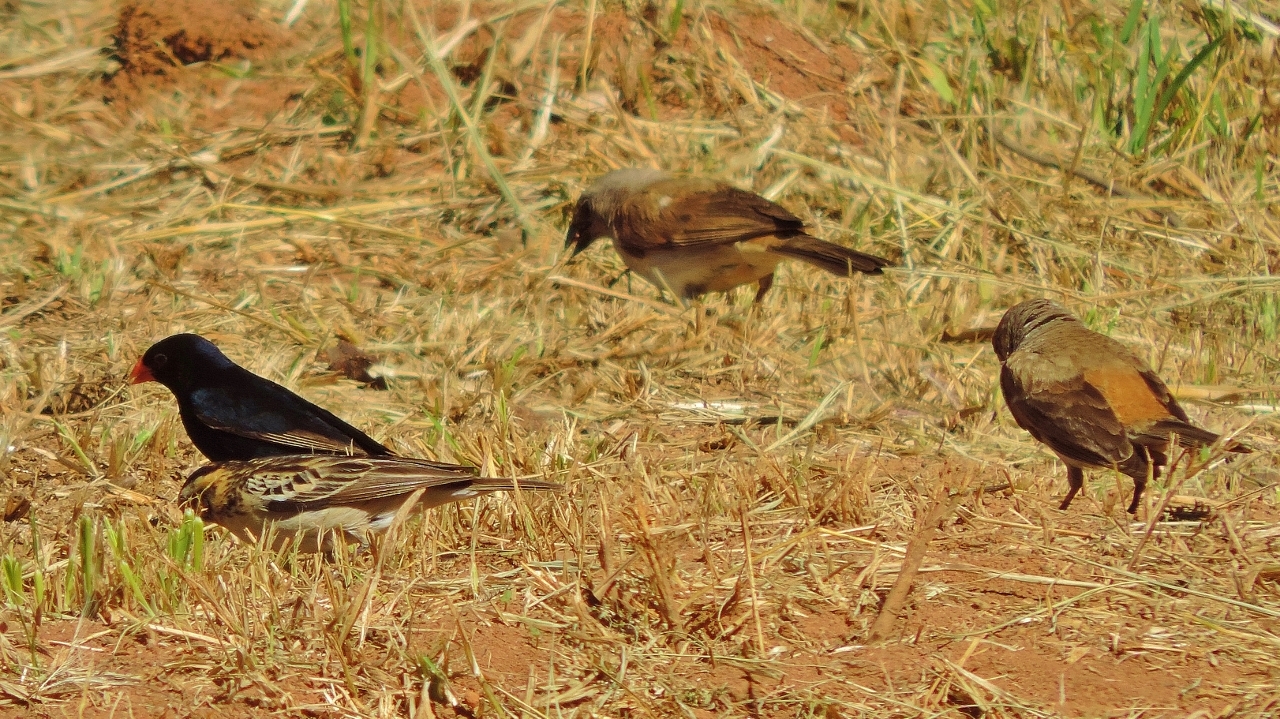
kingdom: Animalia
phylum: Chordata
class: Aves
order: Passeriformes
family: Passeridae
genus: Passer
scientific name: Passer diffusus
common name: Southern grey-headed sparrow
